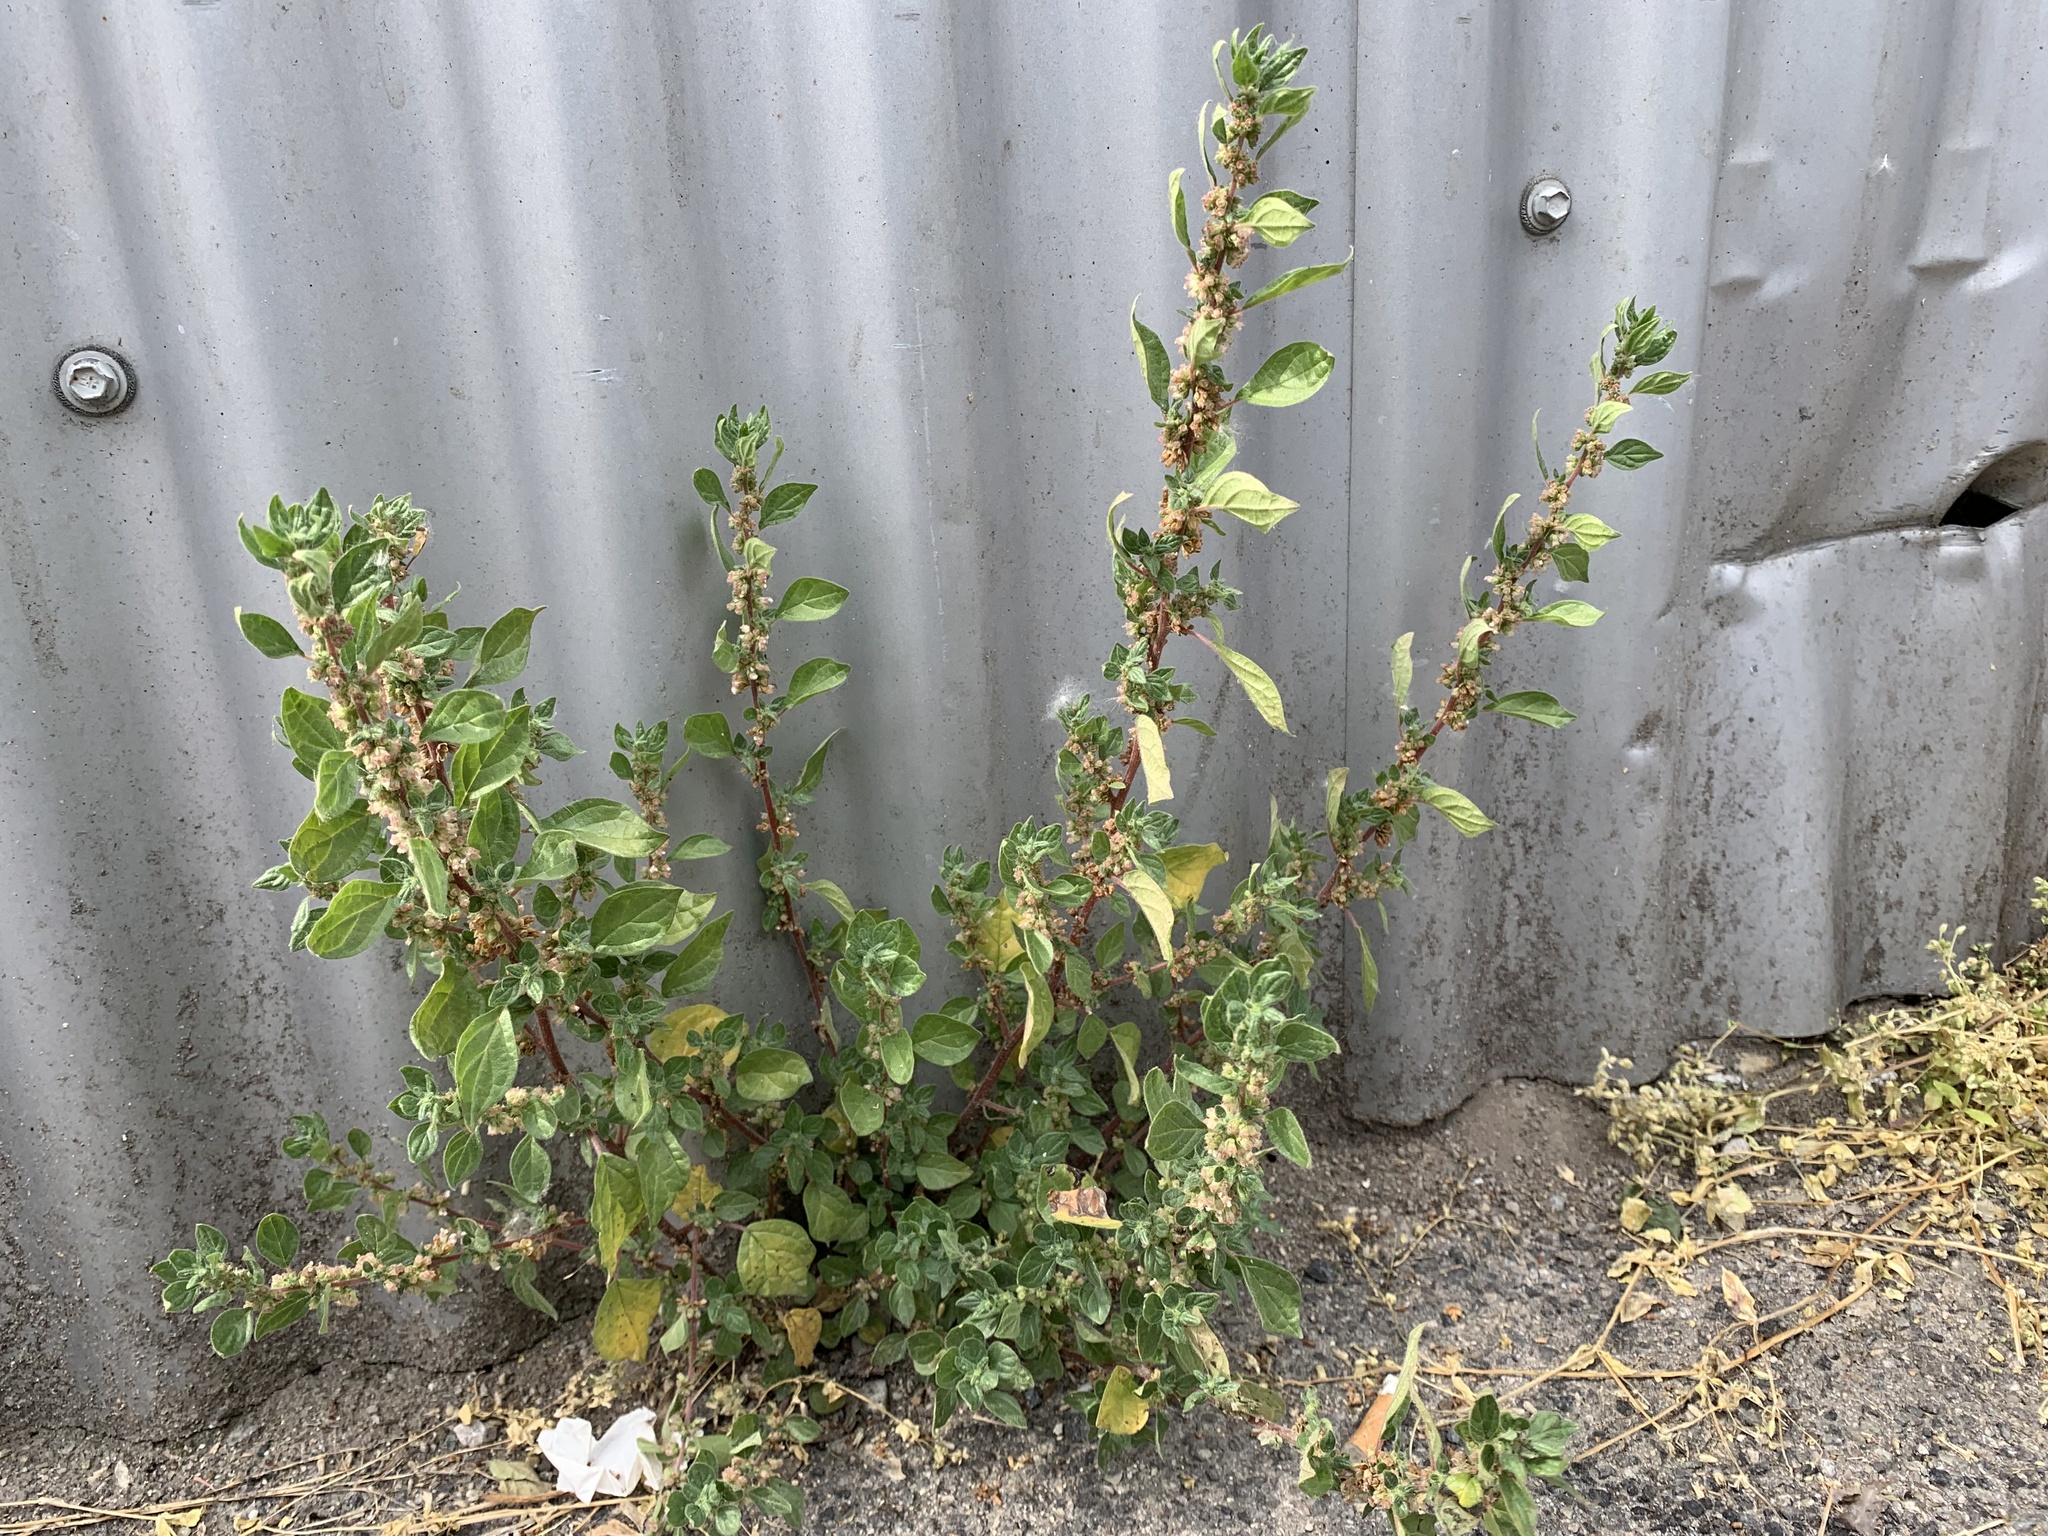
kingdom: Plantae
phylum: Tracheophyta
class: Magnoliopsida
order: Rosales
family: Urticaceae
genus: Parietaria
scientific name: Parietaria judaica
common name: Pellitory-of-the-wall
